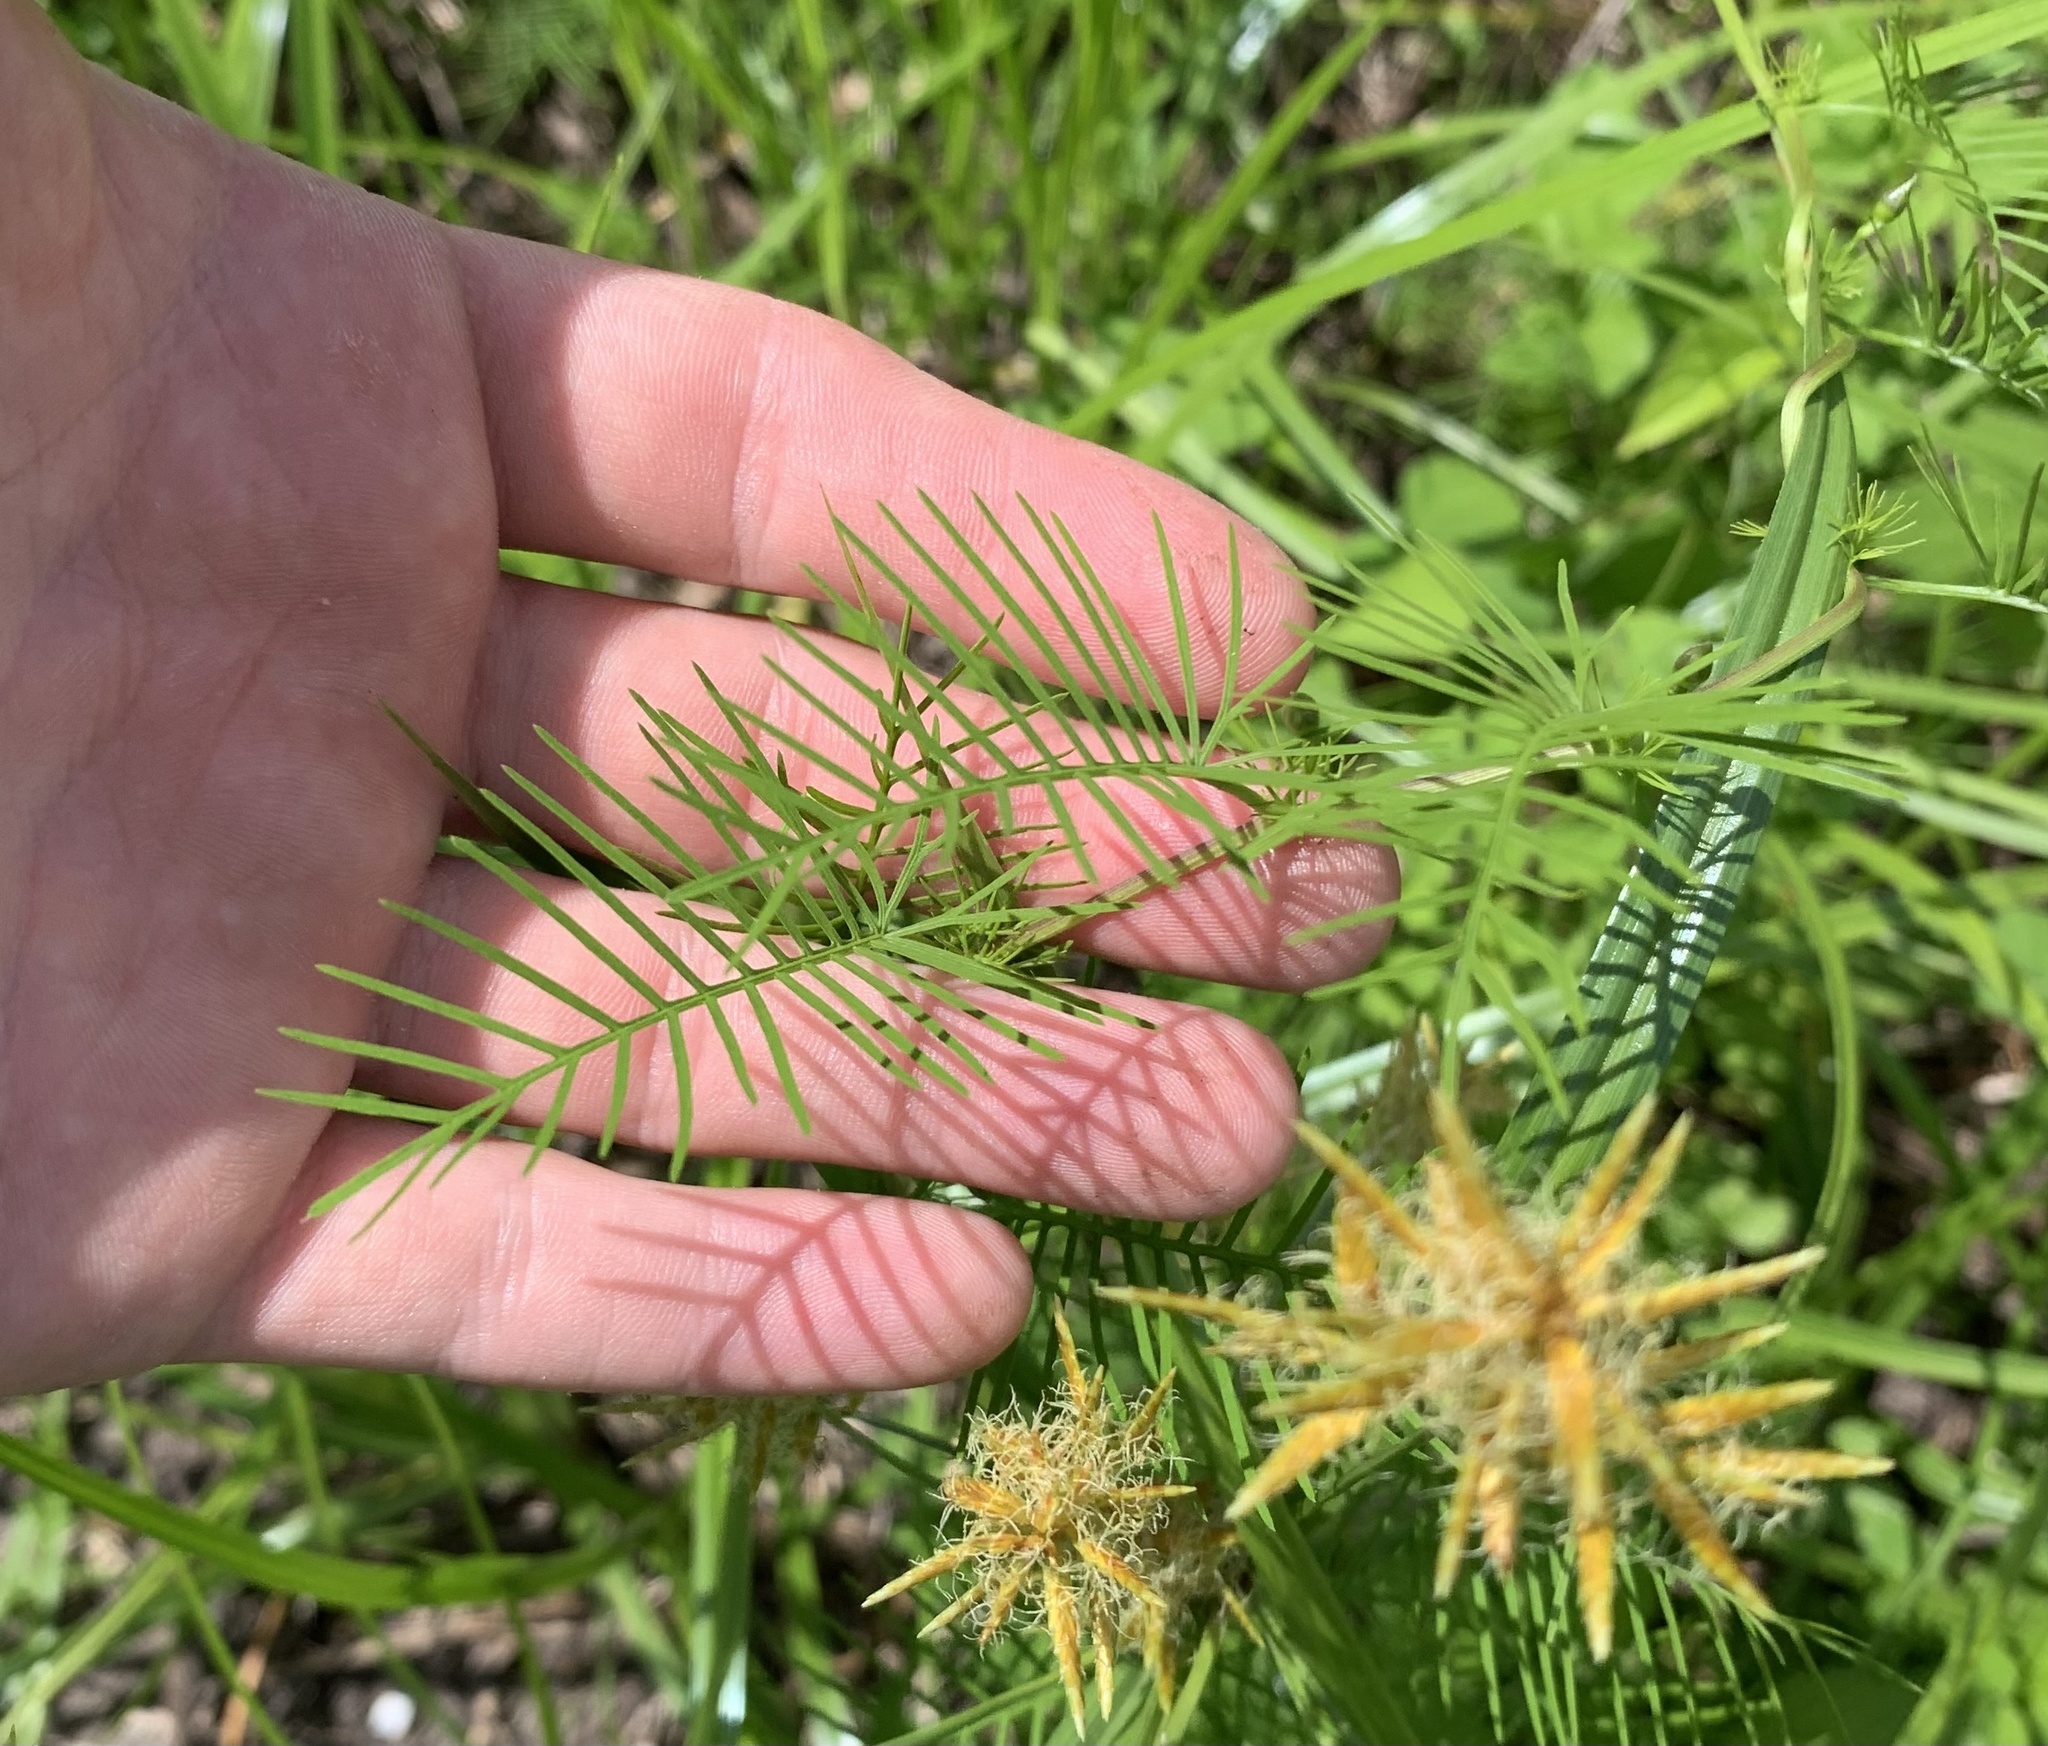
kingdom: Plantae
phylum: Tracheophyta
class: Magnoliopsida
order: Solanales
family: Convolvulaceae
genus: Ipomoea
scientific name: Ipomoea quamoclit
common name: Cypress vine
